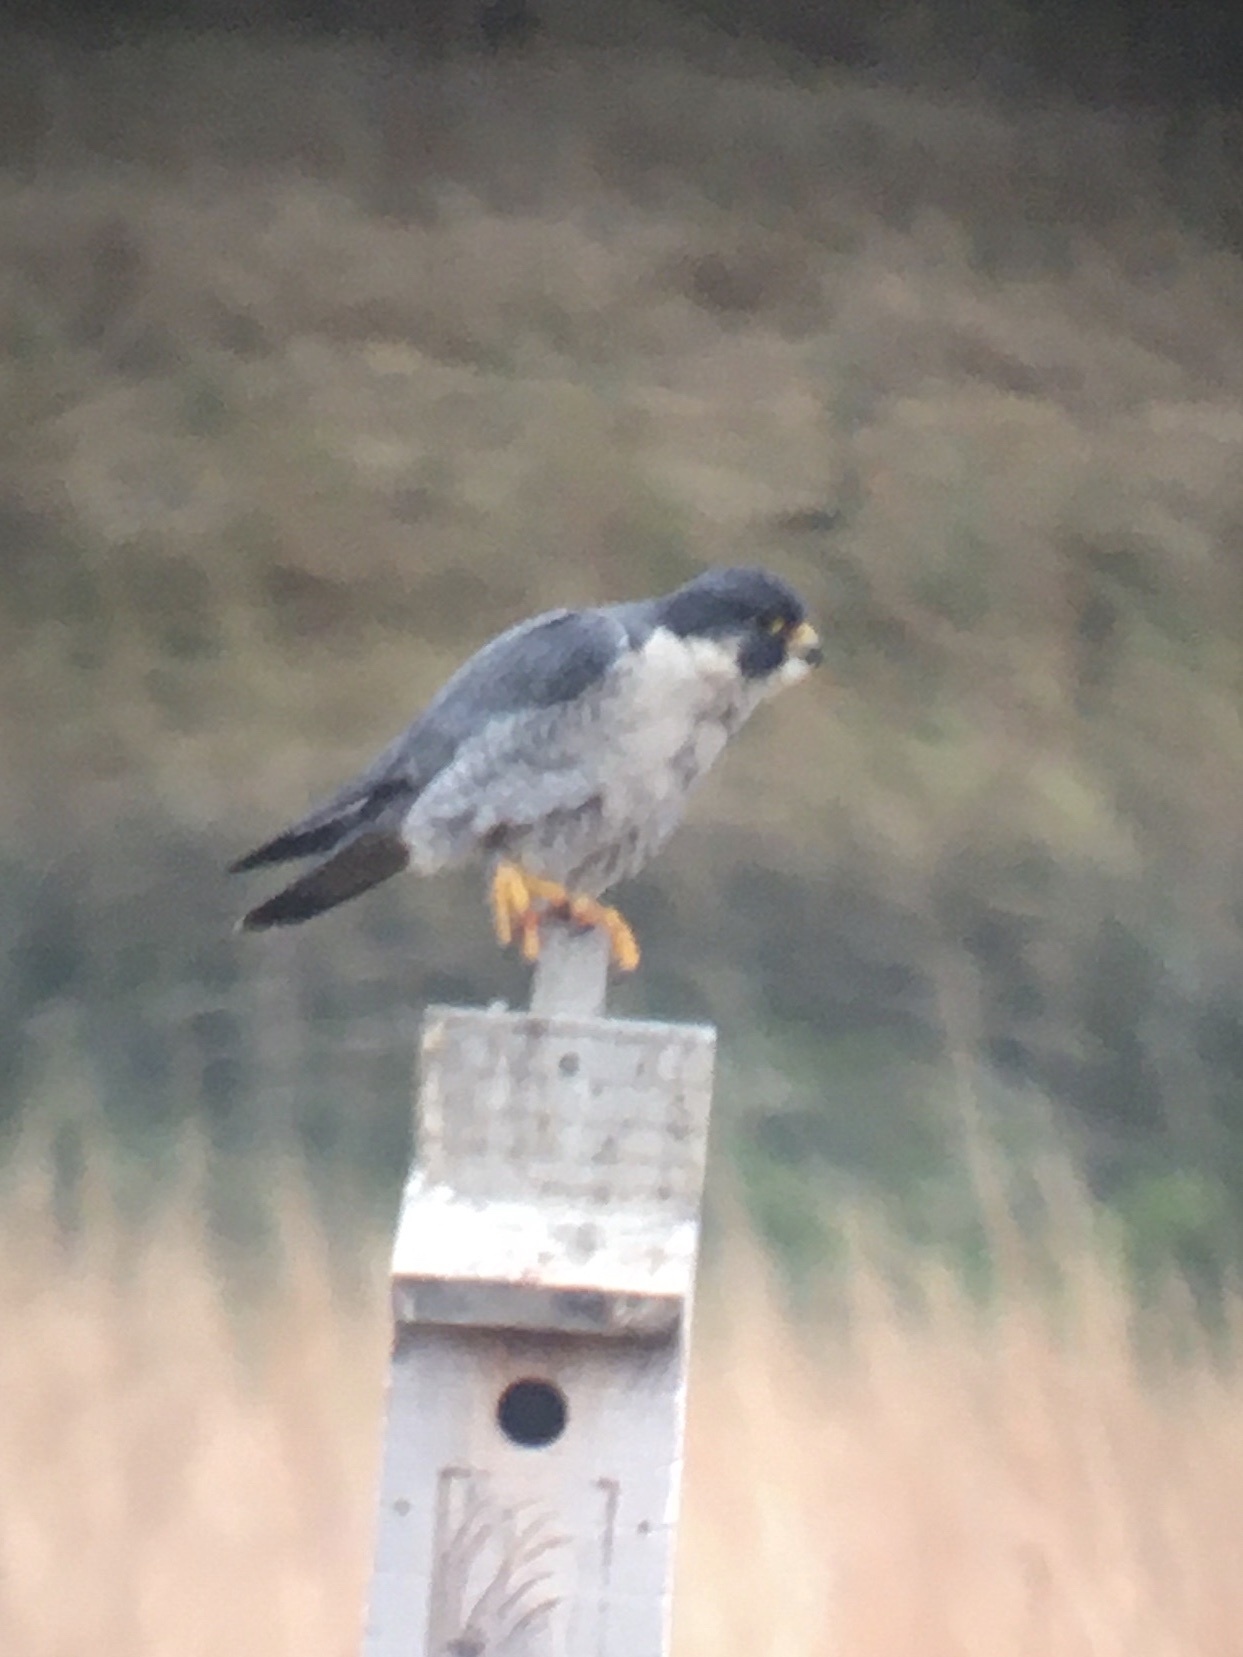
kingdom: Animalia
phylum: Chordata
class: Aves
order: Falconiformes
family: Falconidae
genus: Falco
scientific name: Falco peregrinus
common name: Peregrine falcon
